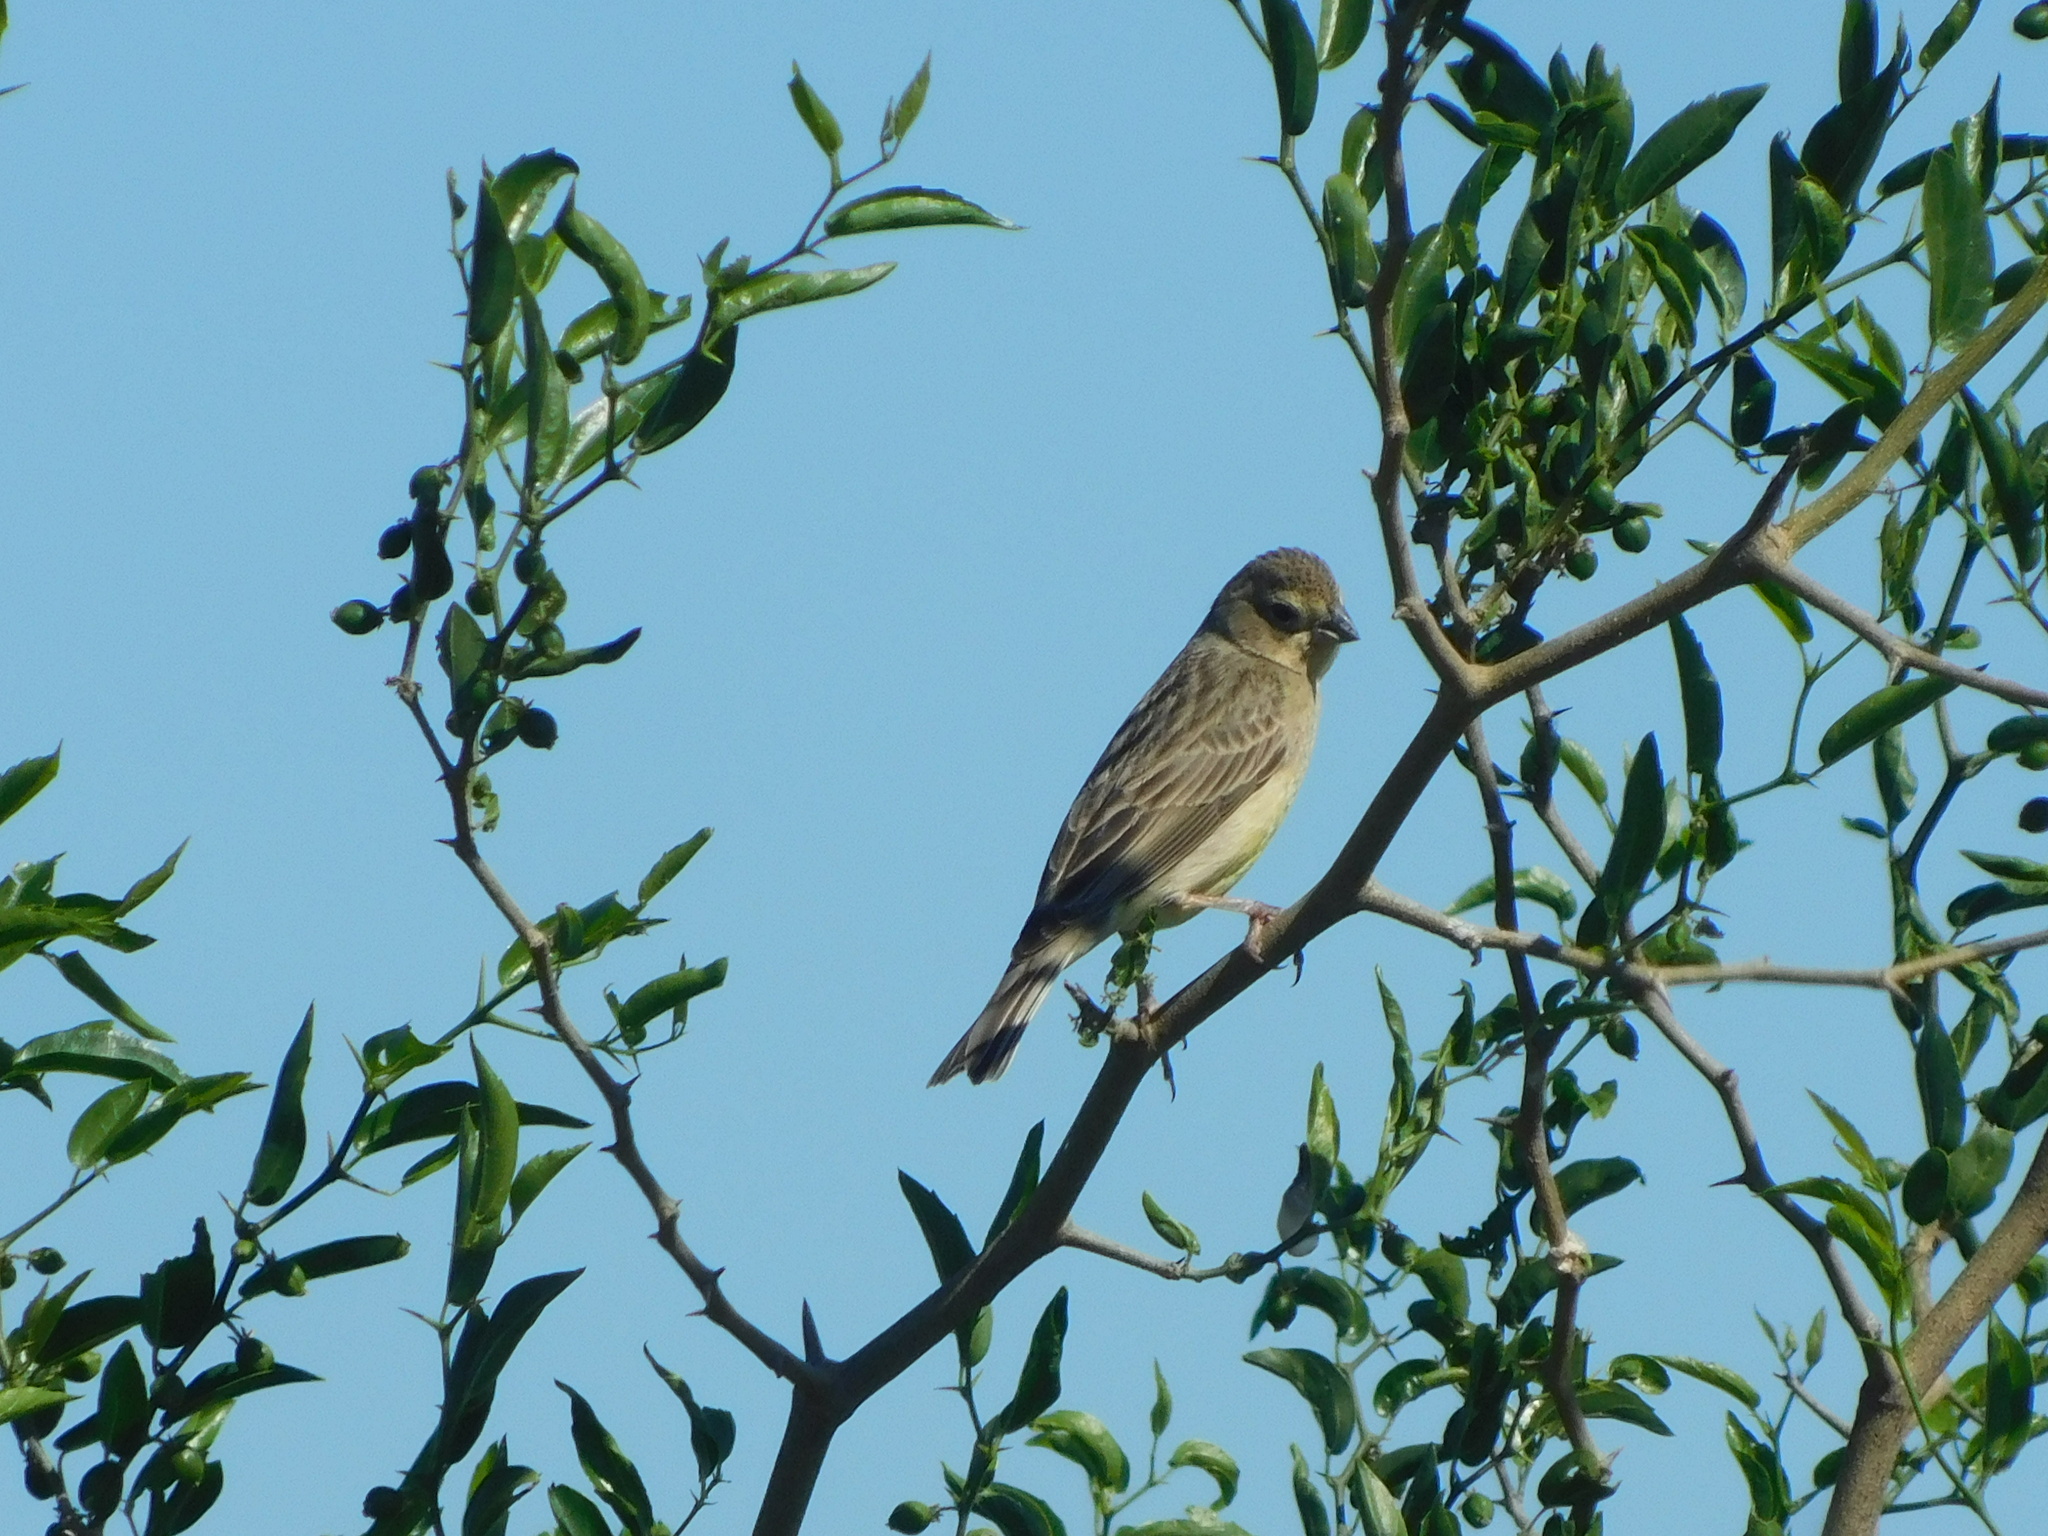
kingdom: Animalia
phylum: Chordata
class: Aves
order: Passeriformes
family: Thraupidae
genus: Sicalis
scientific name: Sicalis luteola
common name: Grassland yellow-finch
